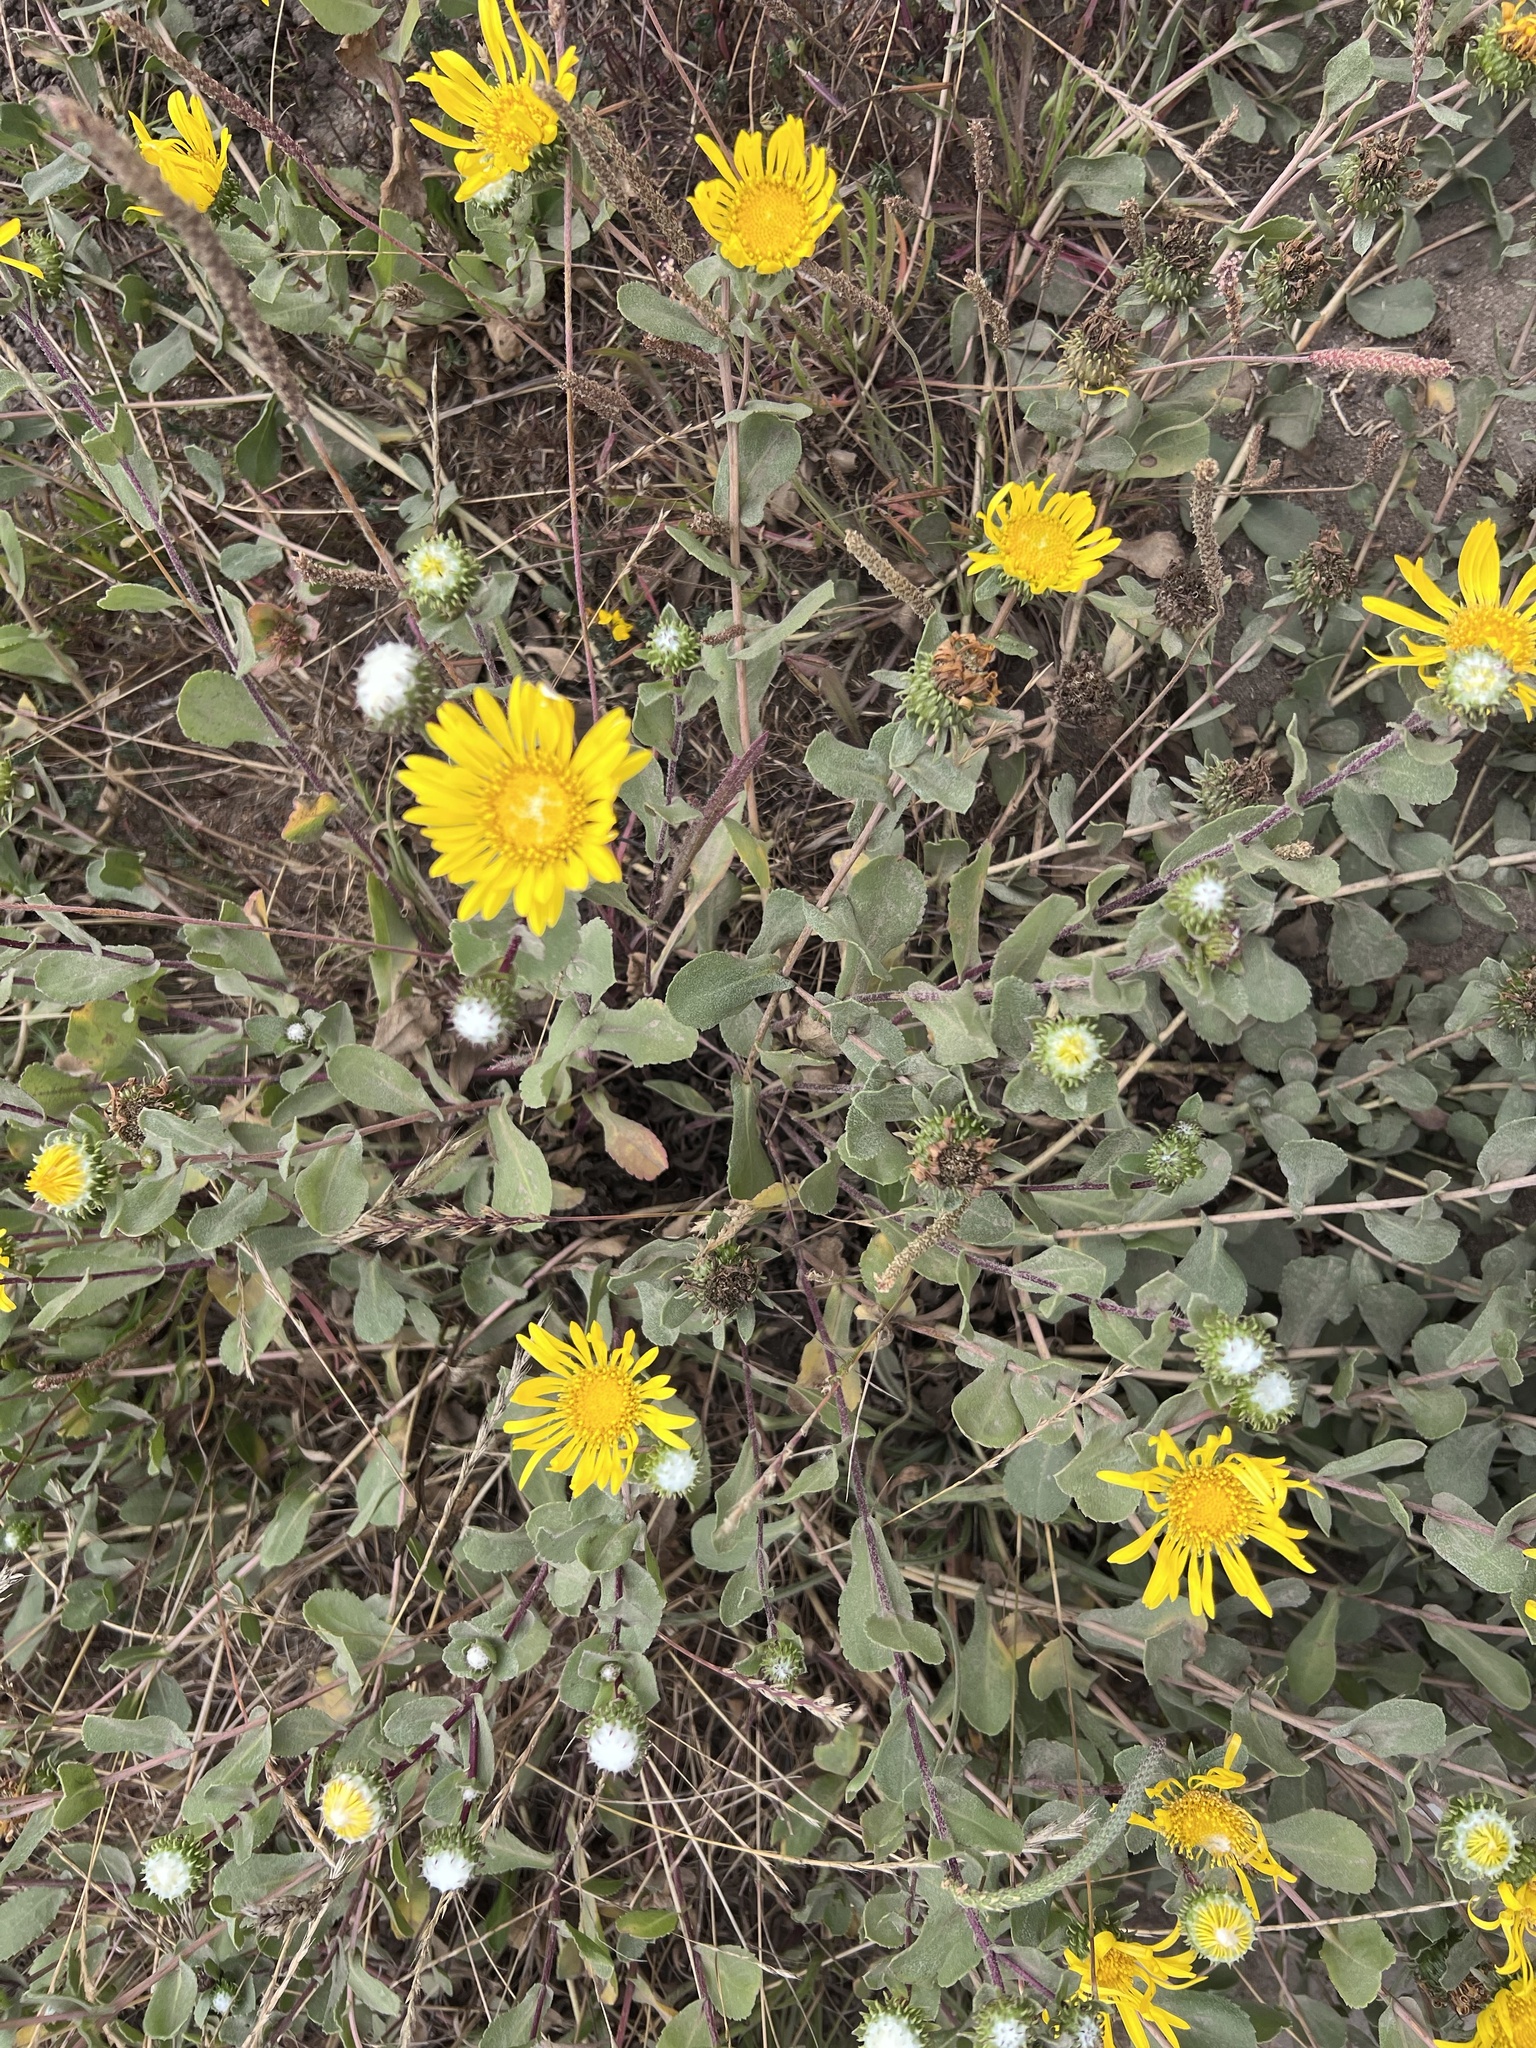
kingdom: Plantae
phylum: Tracheophyta
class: Magnoliopsida
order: Asterales
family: Asteraceae
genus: Grindelia
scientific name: Grindelia hirsutula
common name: Hairy gumweed
